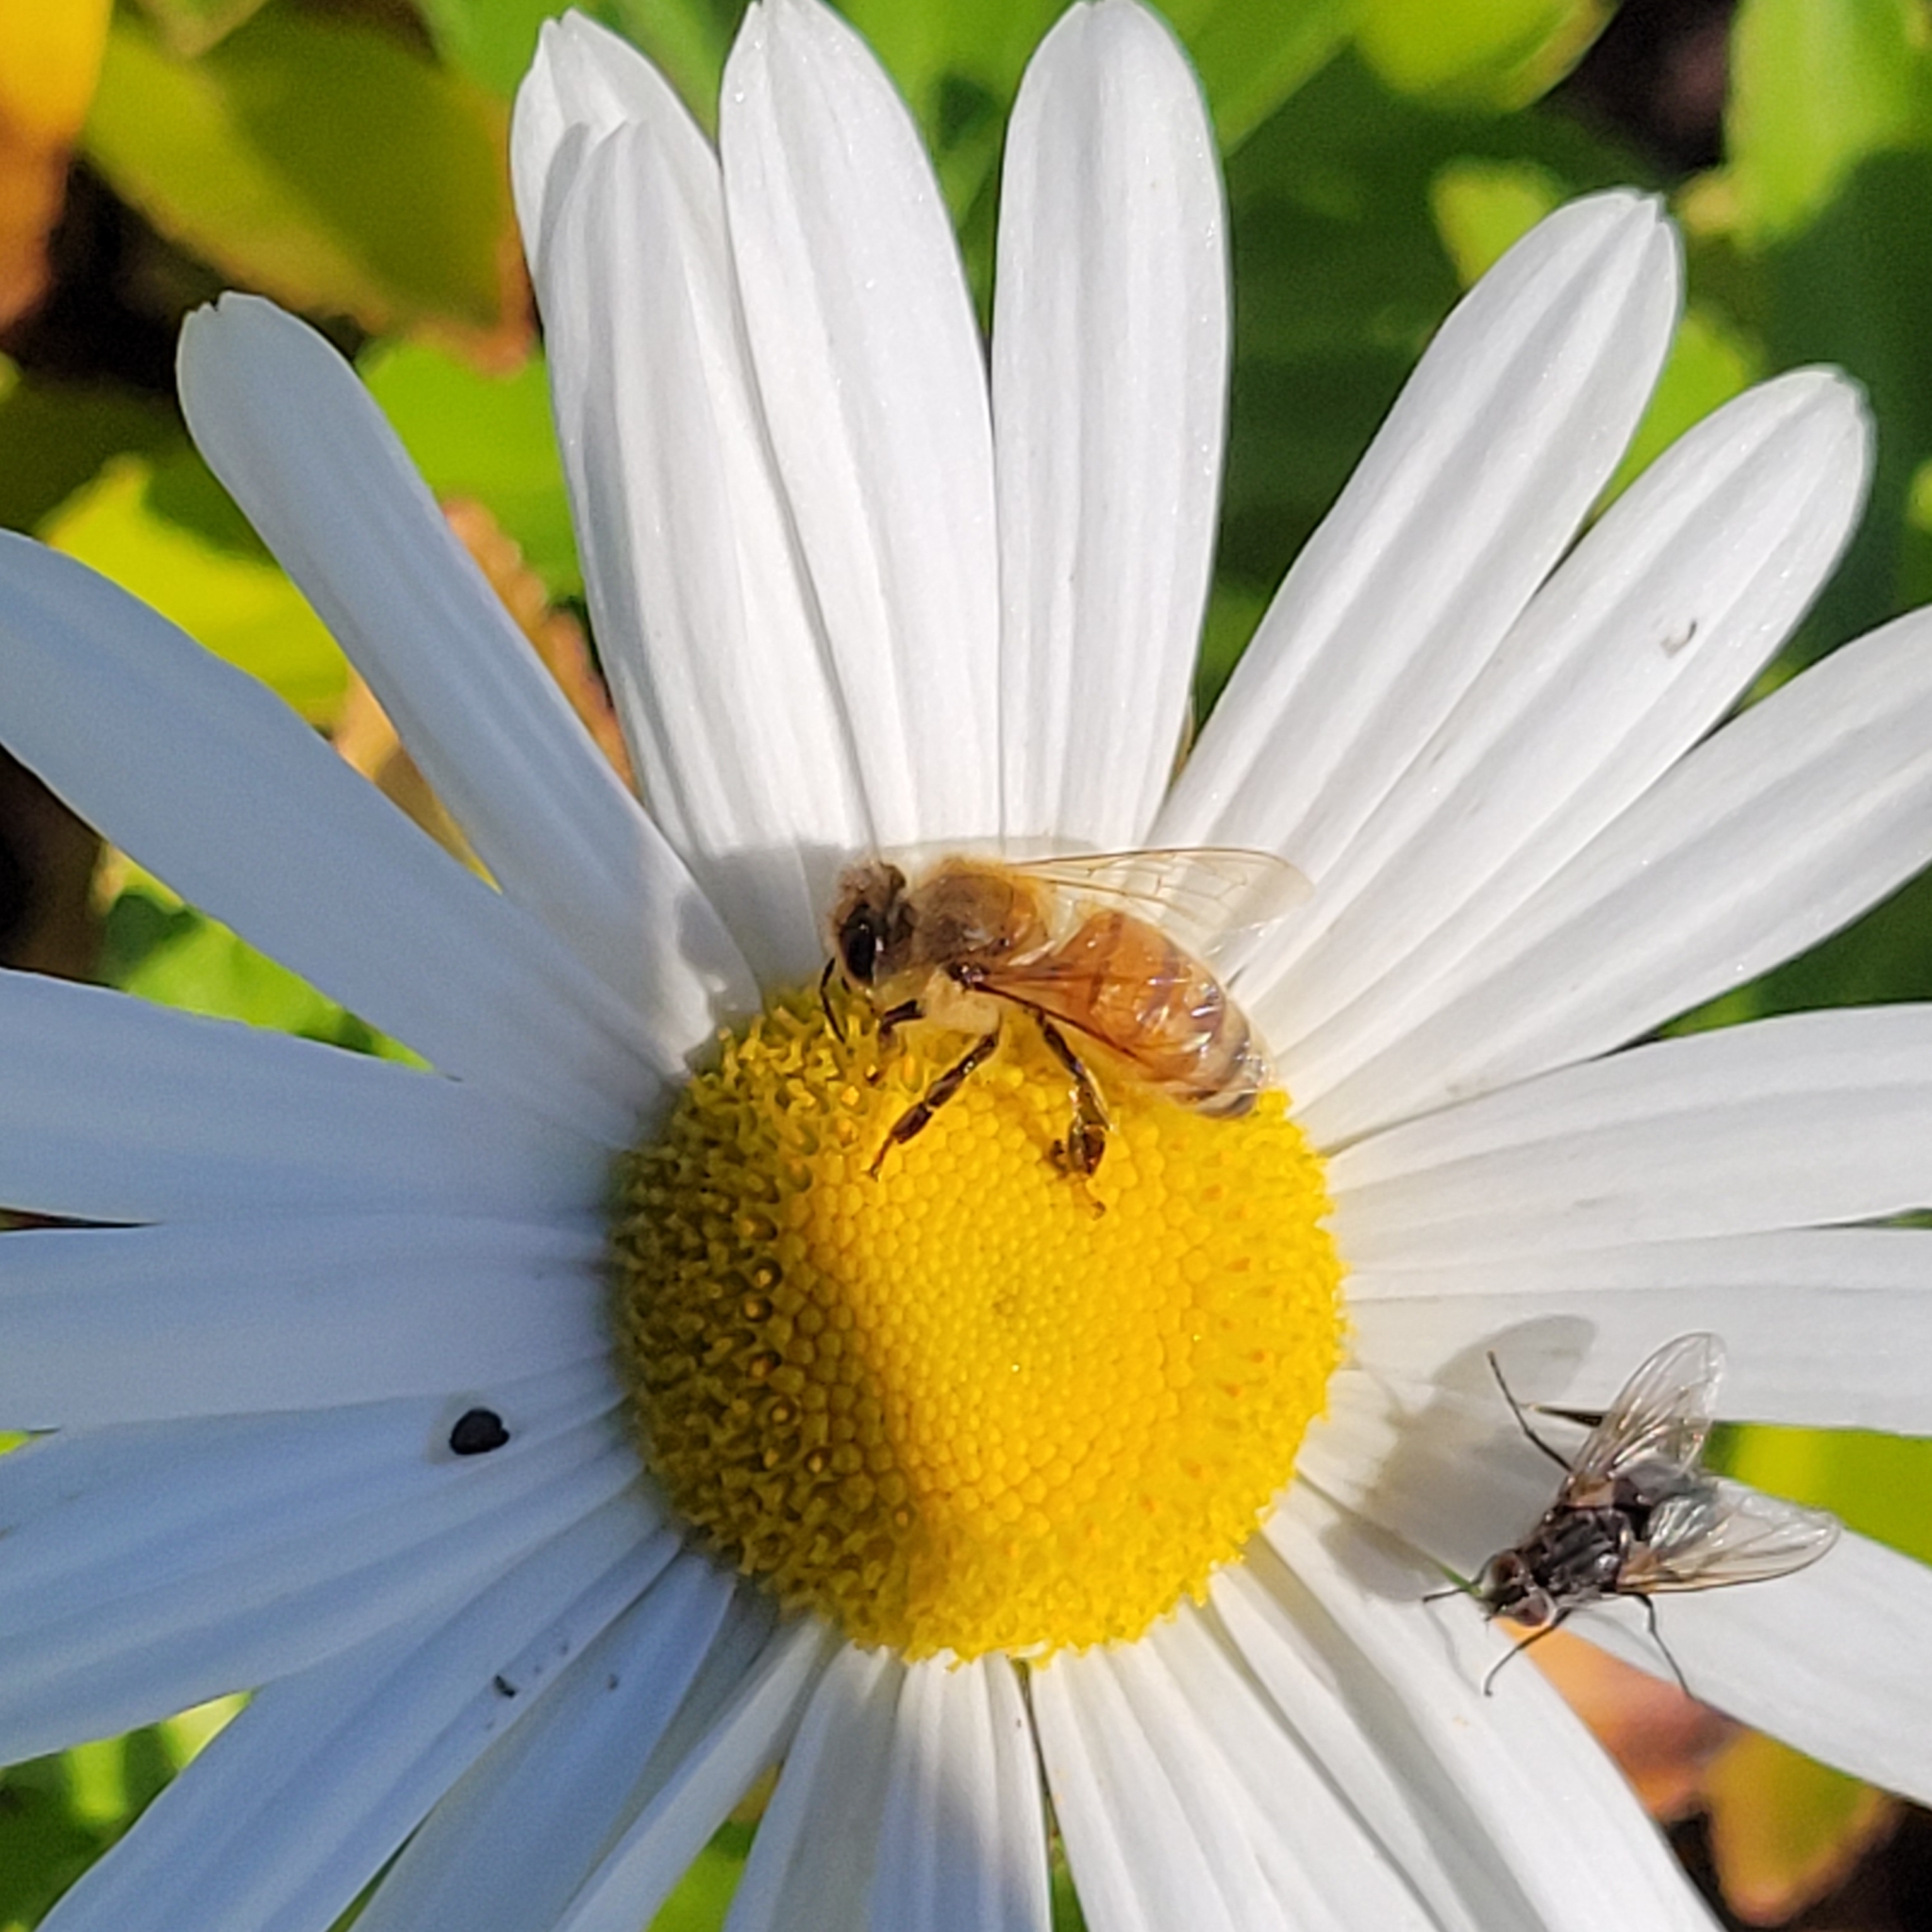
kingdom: Animalia
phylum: Arthropoda
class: Insecta
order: Hymenoptera
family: Apidae
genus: Apis
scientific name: Apis mellifera
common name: Honey bee
